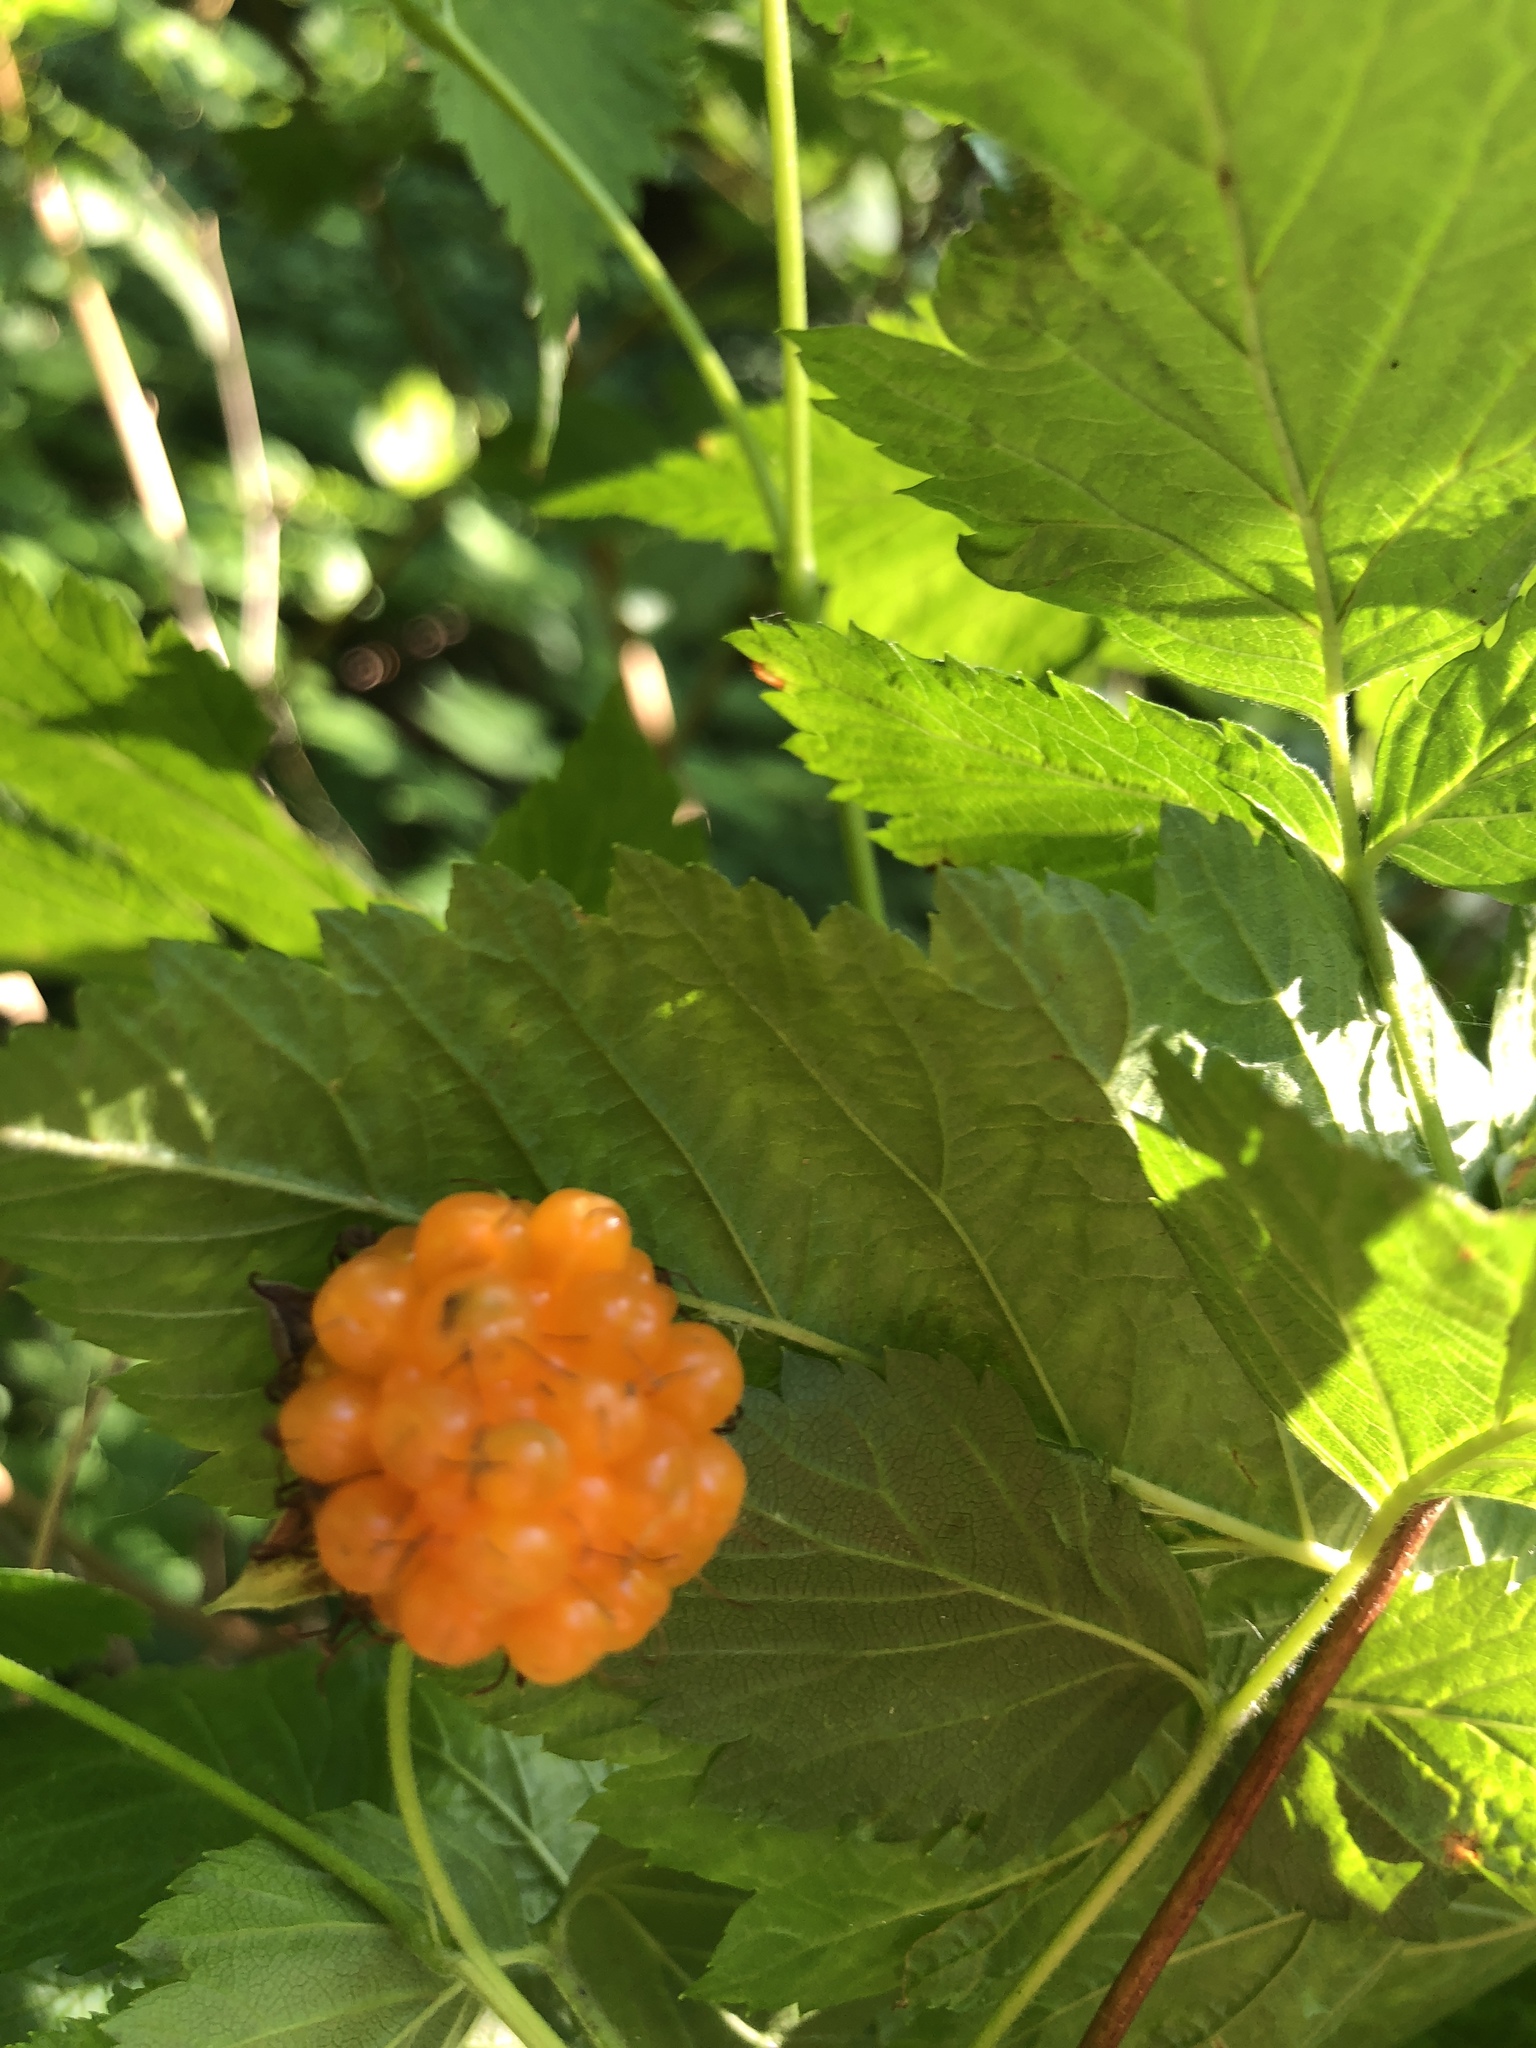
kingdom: Plantae
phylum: Tracheophyta
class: Magnoliopsida
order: Rosales
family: Rosaceae
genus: Rubus
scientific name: Rubus spectabilis
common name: Salmonberry
